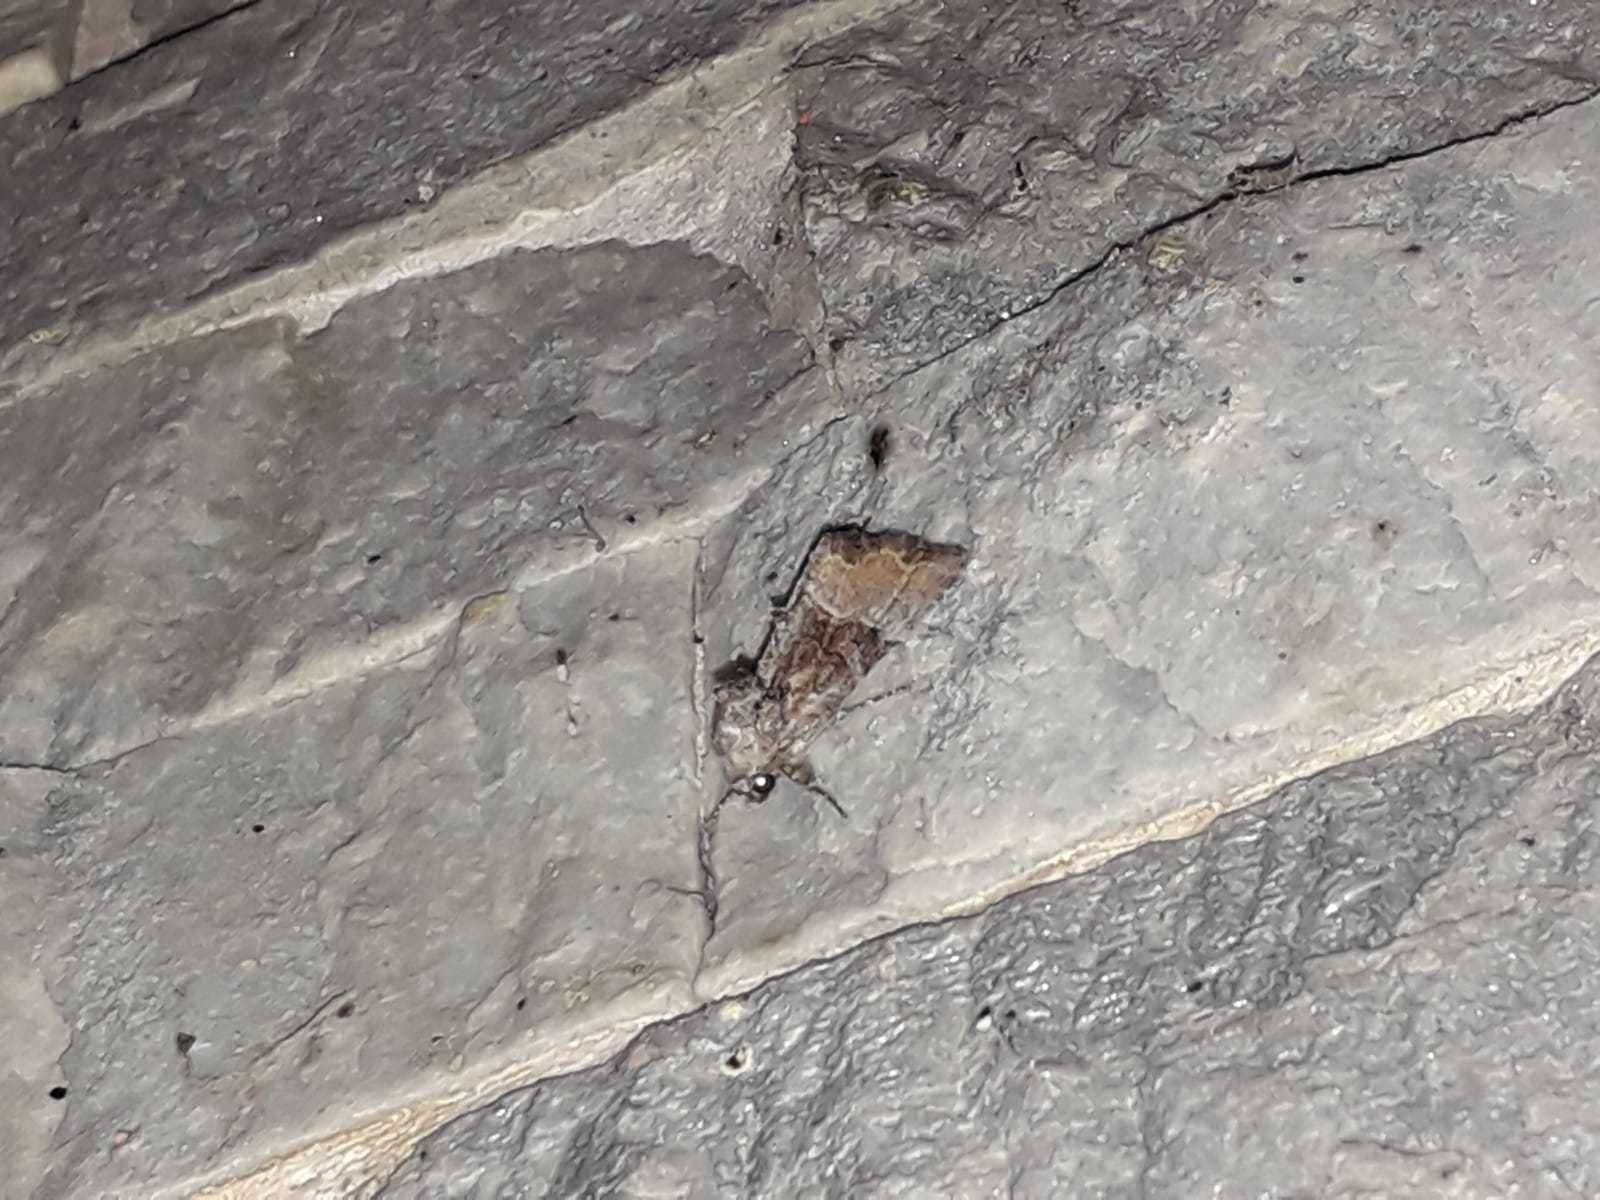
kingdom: Animalia
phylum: Arthropoda
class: Insecta
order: Lepidoptera
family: Noctuidae
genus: Mesoligia
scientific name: Mesoligia furuncula
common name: Cloaked minor
